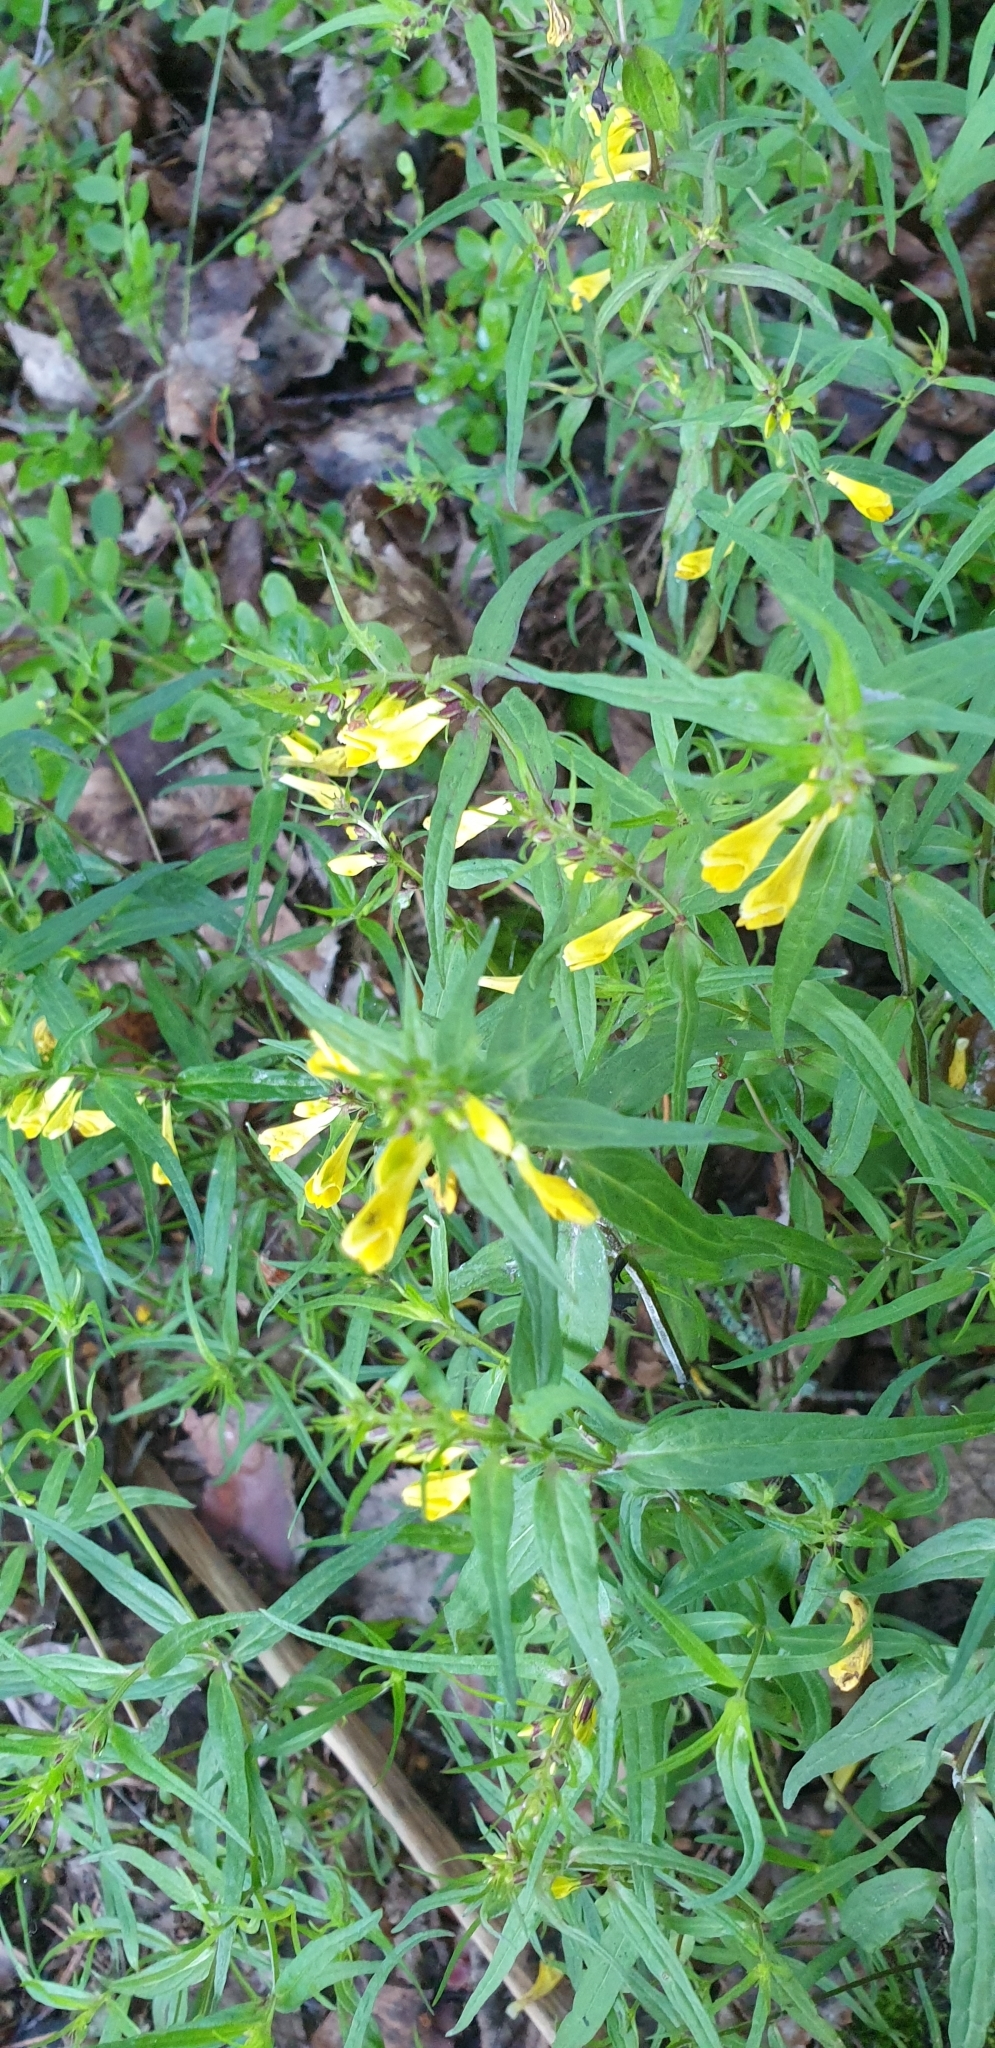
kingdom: Plantae
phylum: Tracheophyta
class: Magnoliopsida
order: Lamiales
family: Orobanchaceae
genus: Melampyrum
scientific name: Melampyrum pratense
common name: Common cow-wheat
